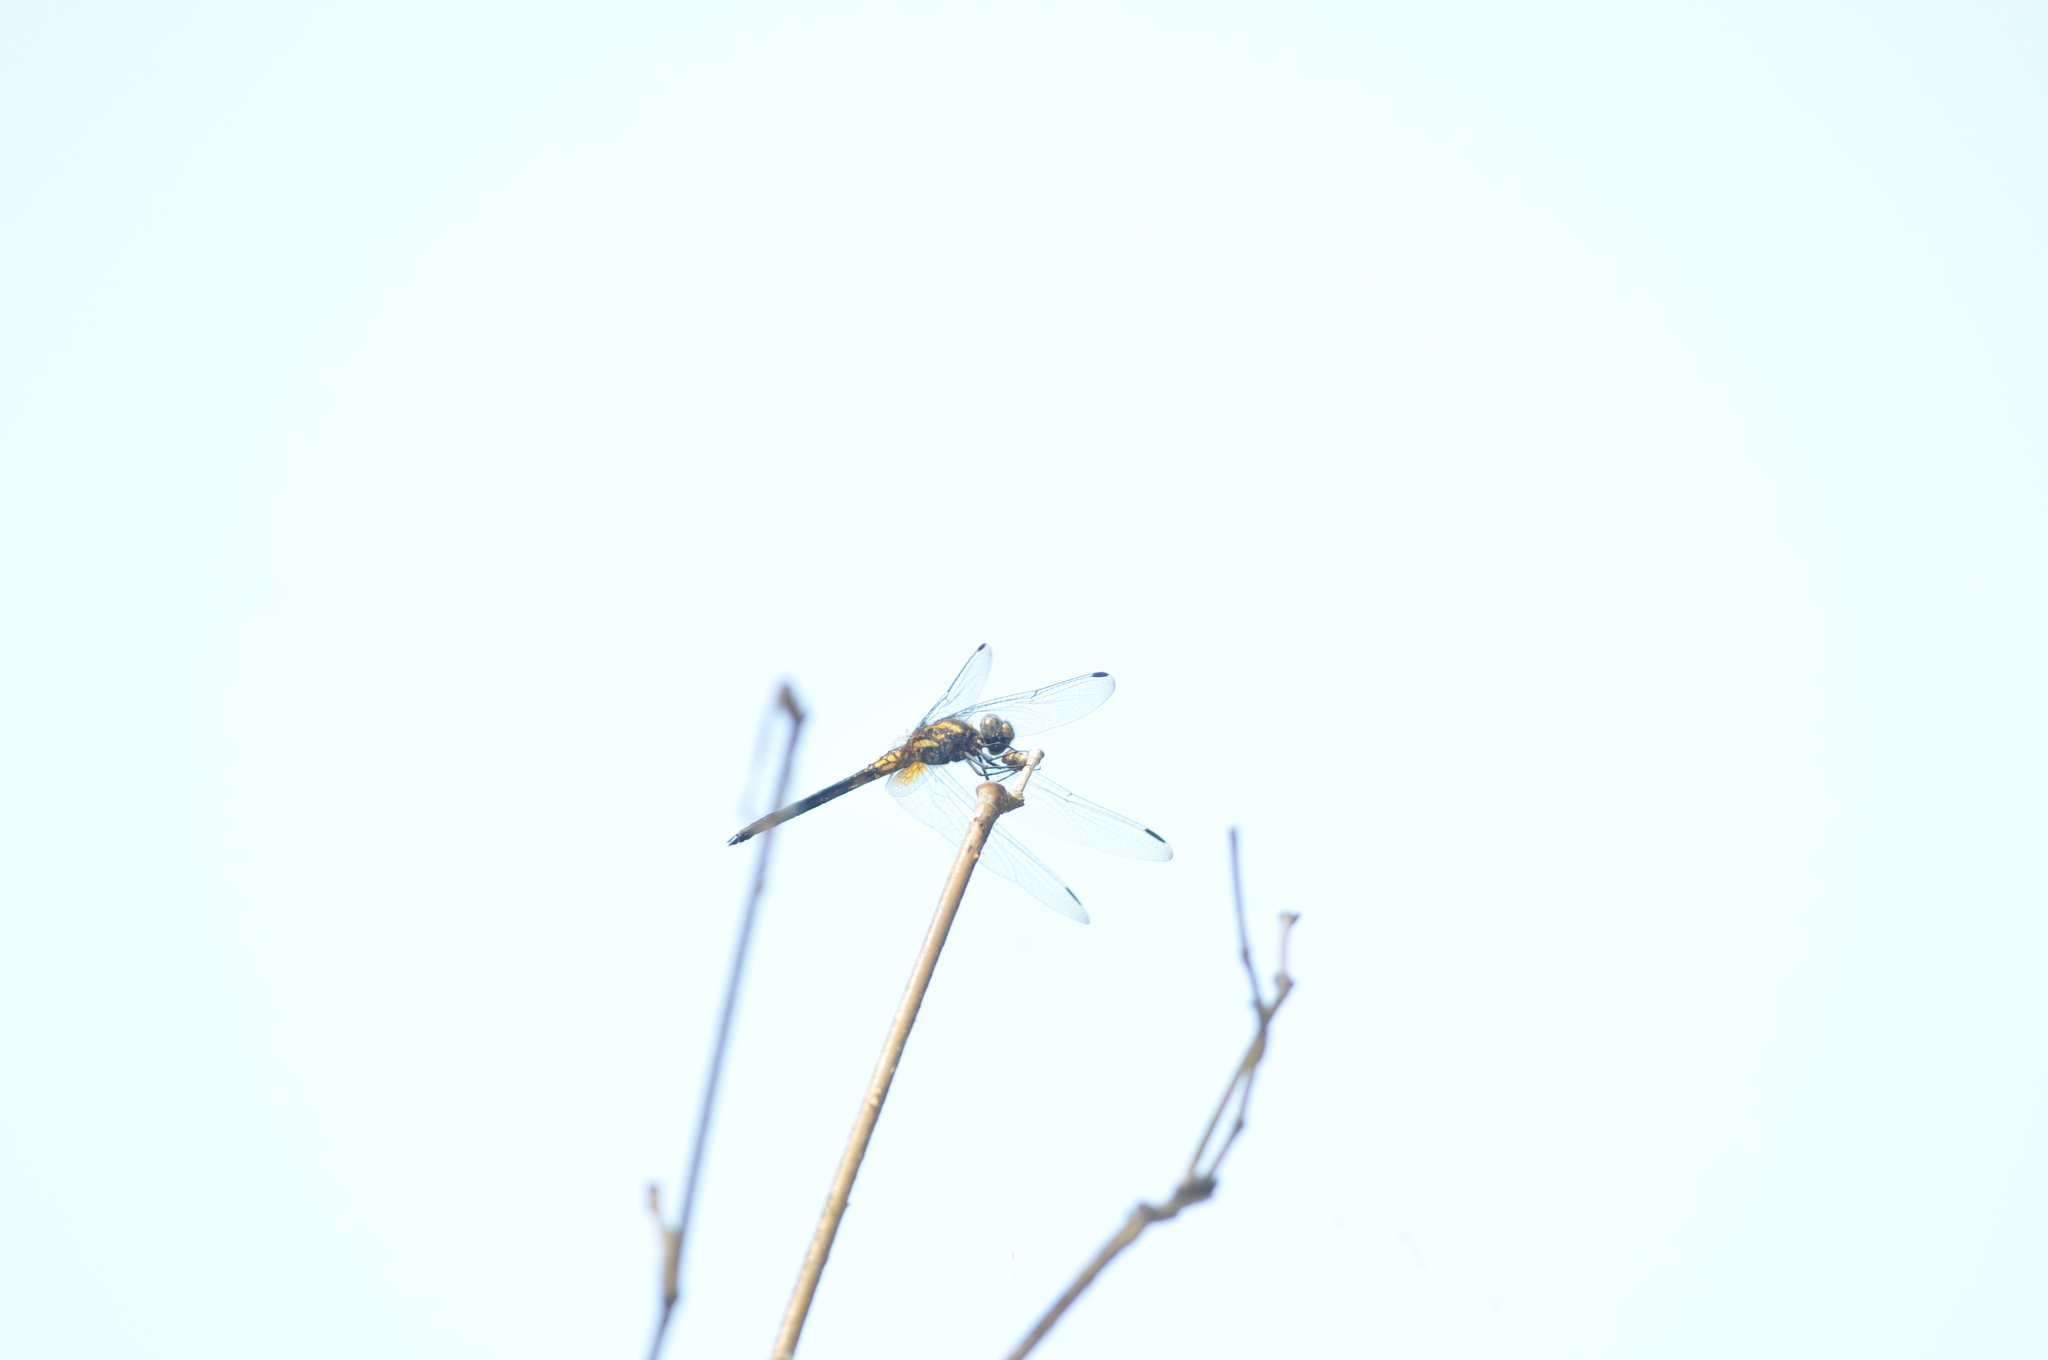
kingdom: Animalia
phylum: Arthropoda
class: Insecta
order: Odonata
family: Libellulidae
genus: Trithemis
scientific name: Trithemis festiva
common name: Indigo dropwing
